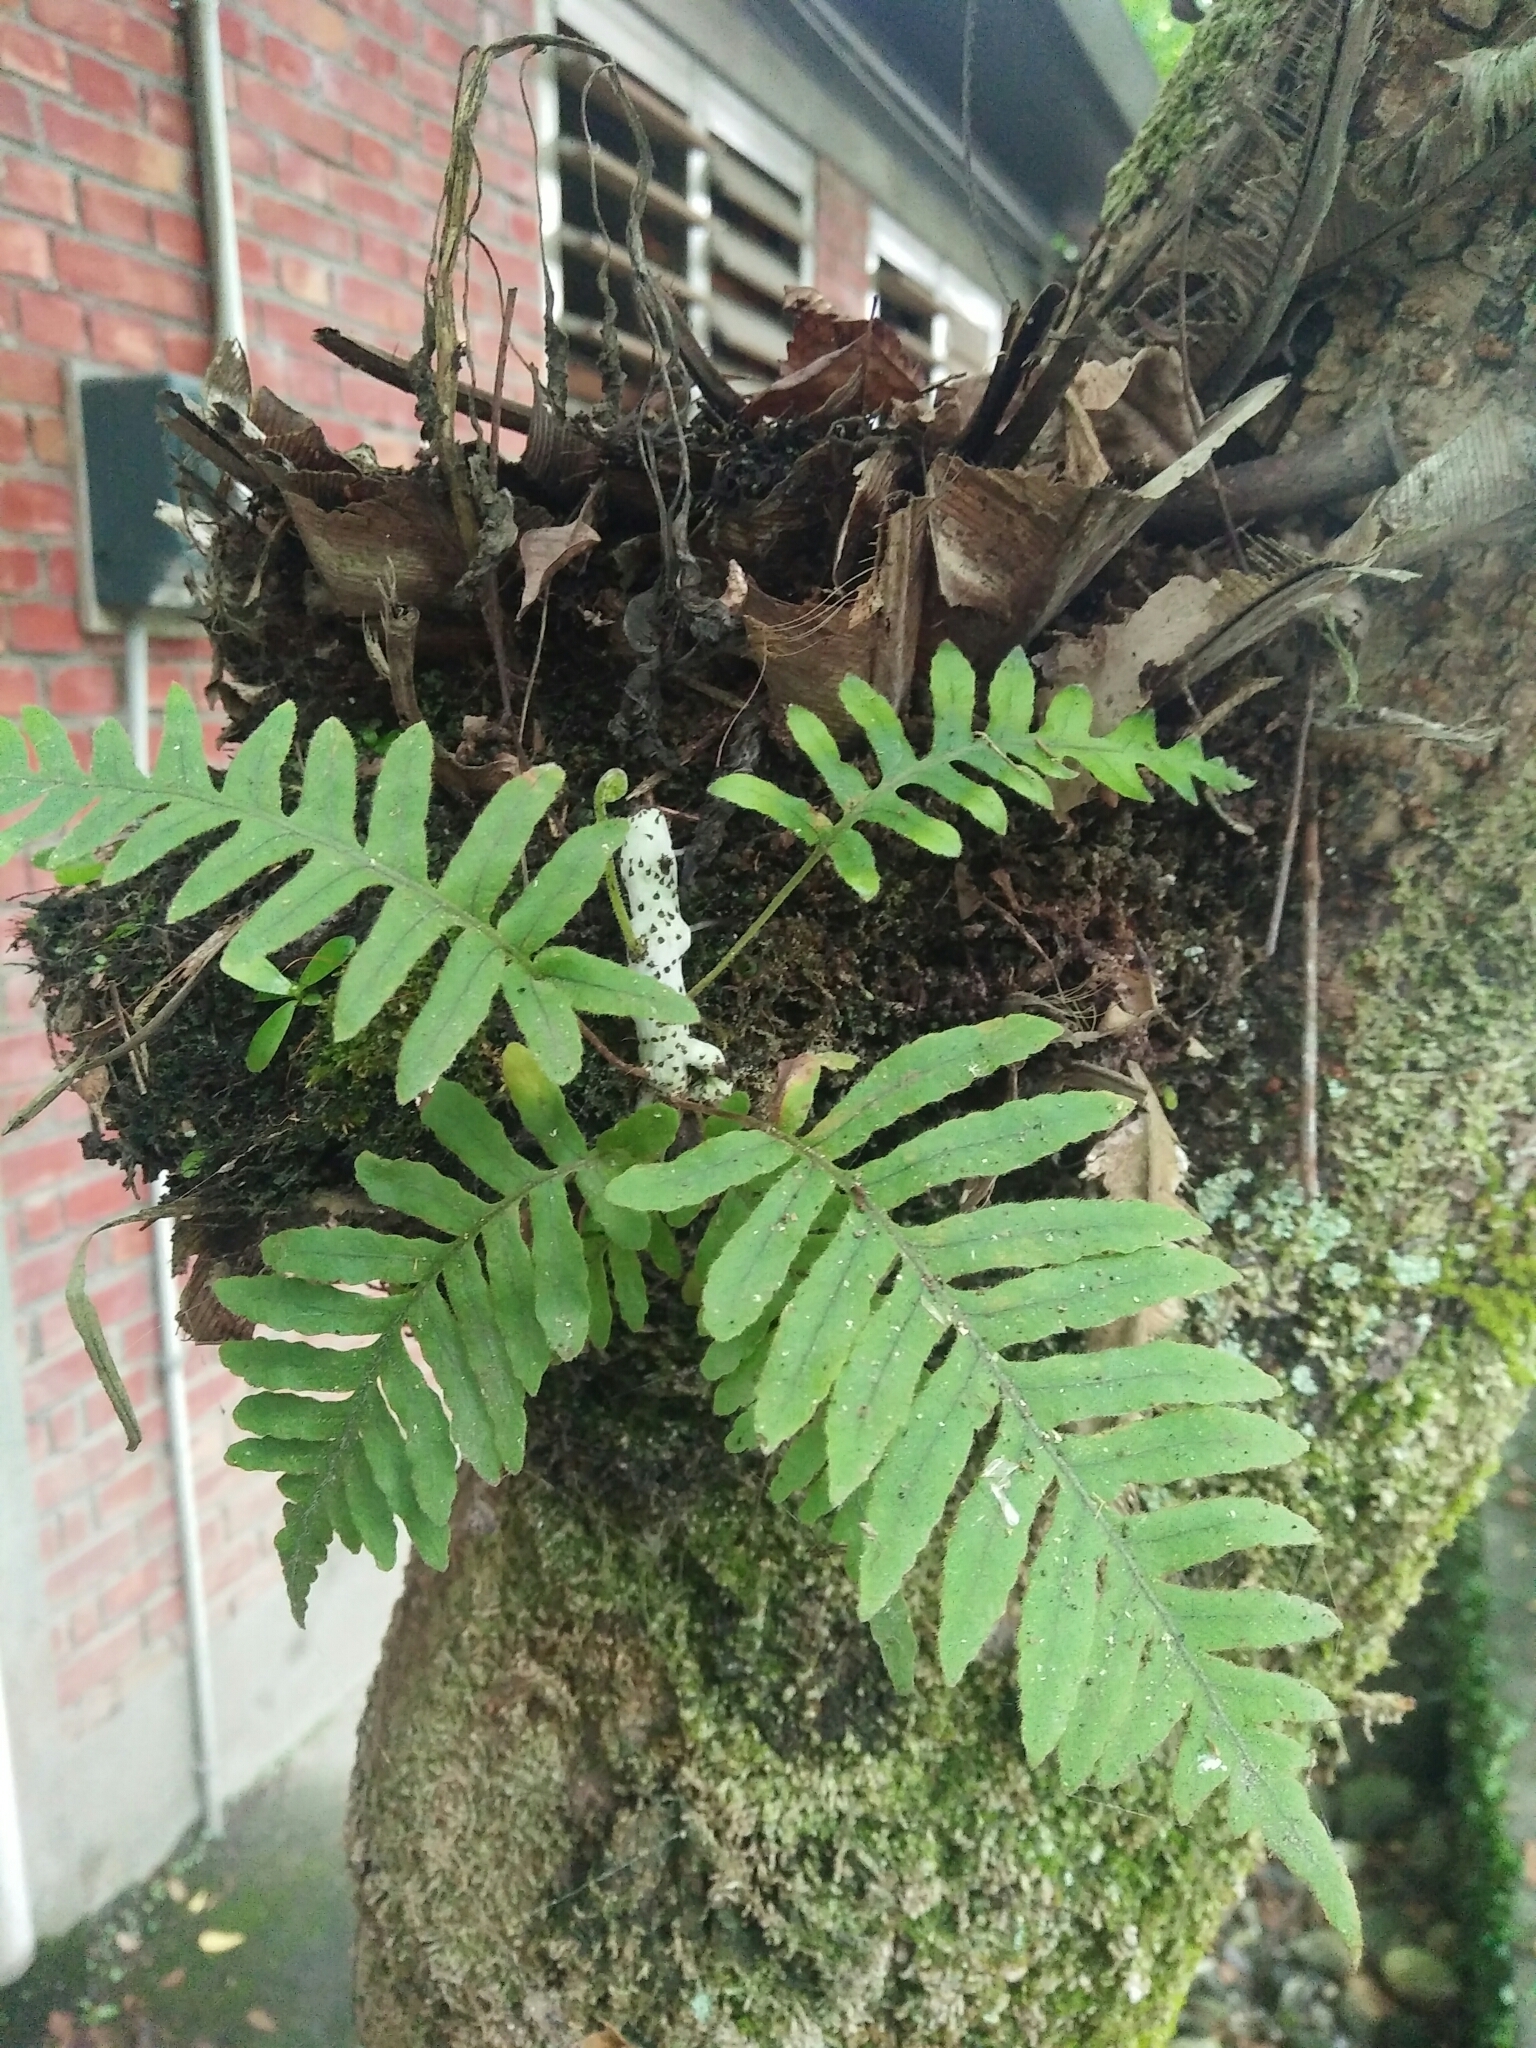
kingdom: Plantae
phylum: Tracheophyta
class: Polypodiopsida
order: Polypodiales
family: Polypodiaceae
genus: Goniophlebium
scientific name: Goniophlebium formosanum
